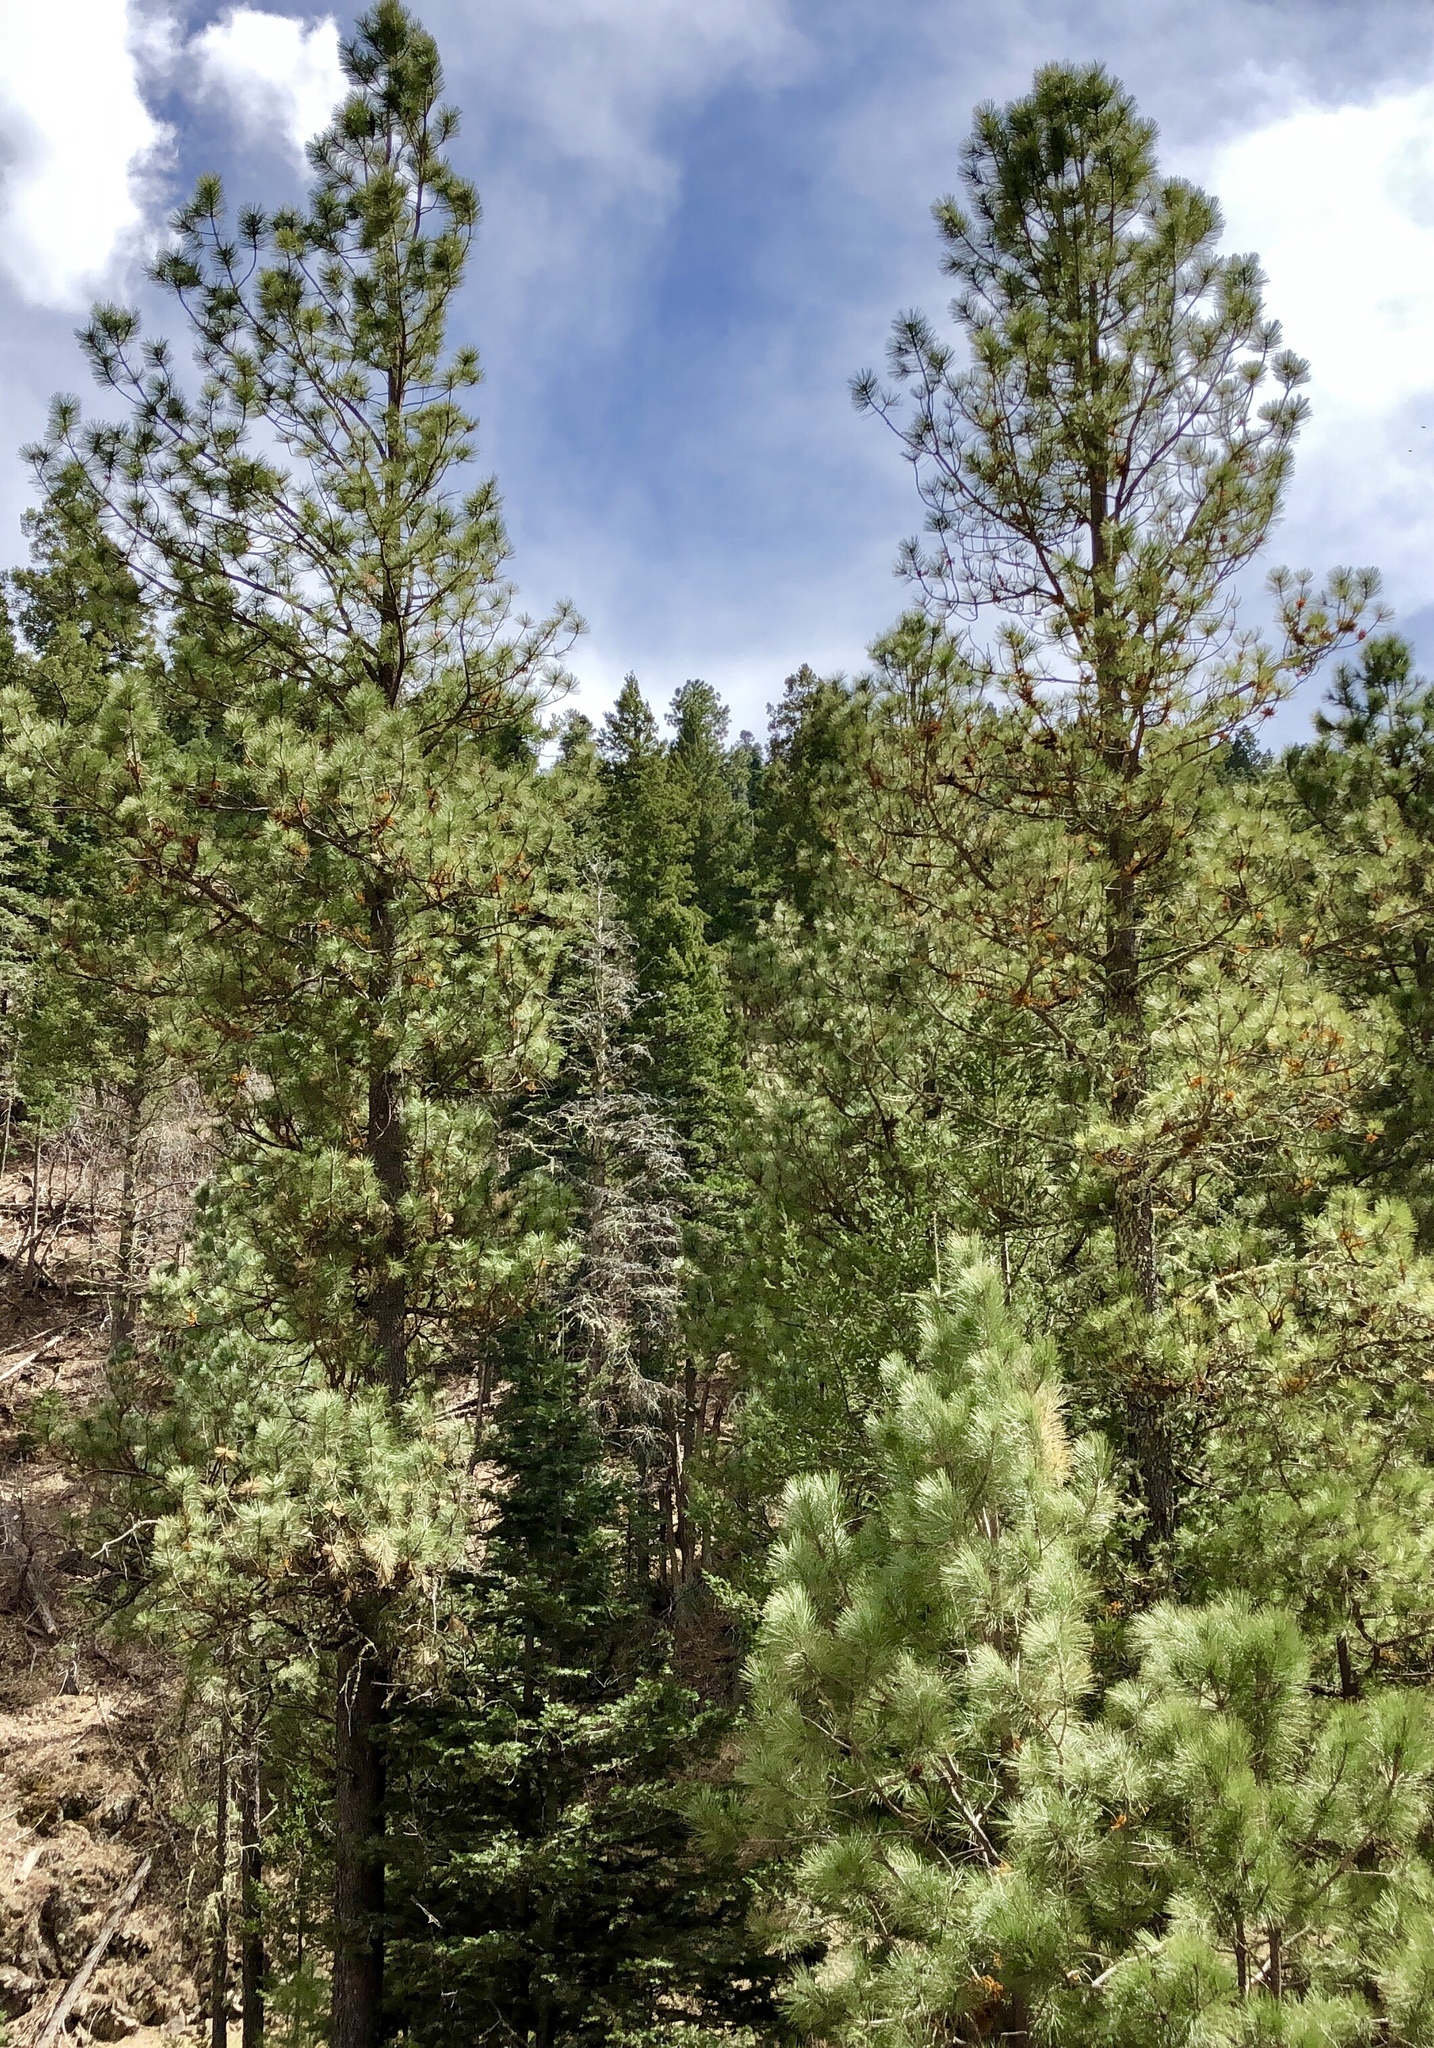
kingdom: Plantae
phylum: Tracheophyta
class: Pinopsida
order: Pinales
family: Pinaceae
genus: Pinus
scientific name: Pinus ponderosa
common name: Western yellow-pine
